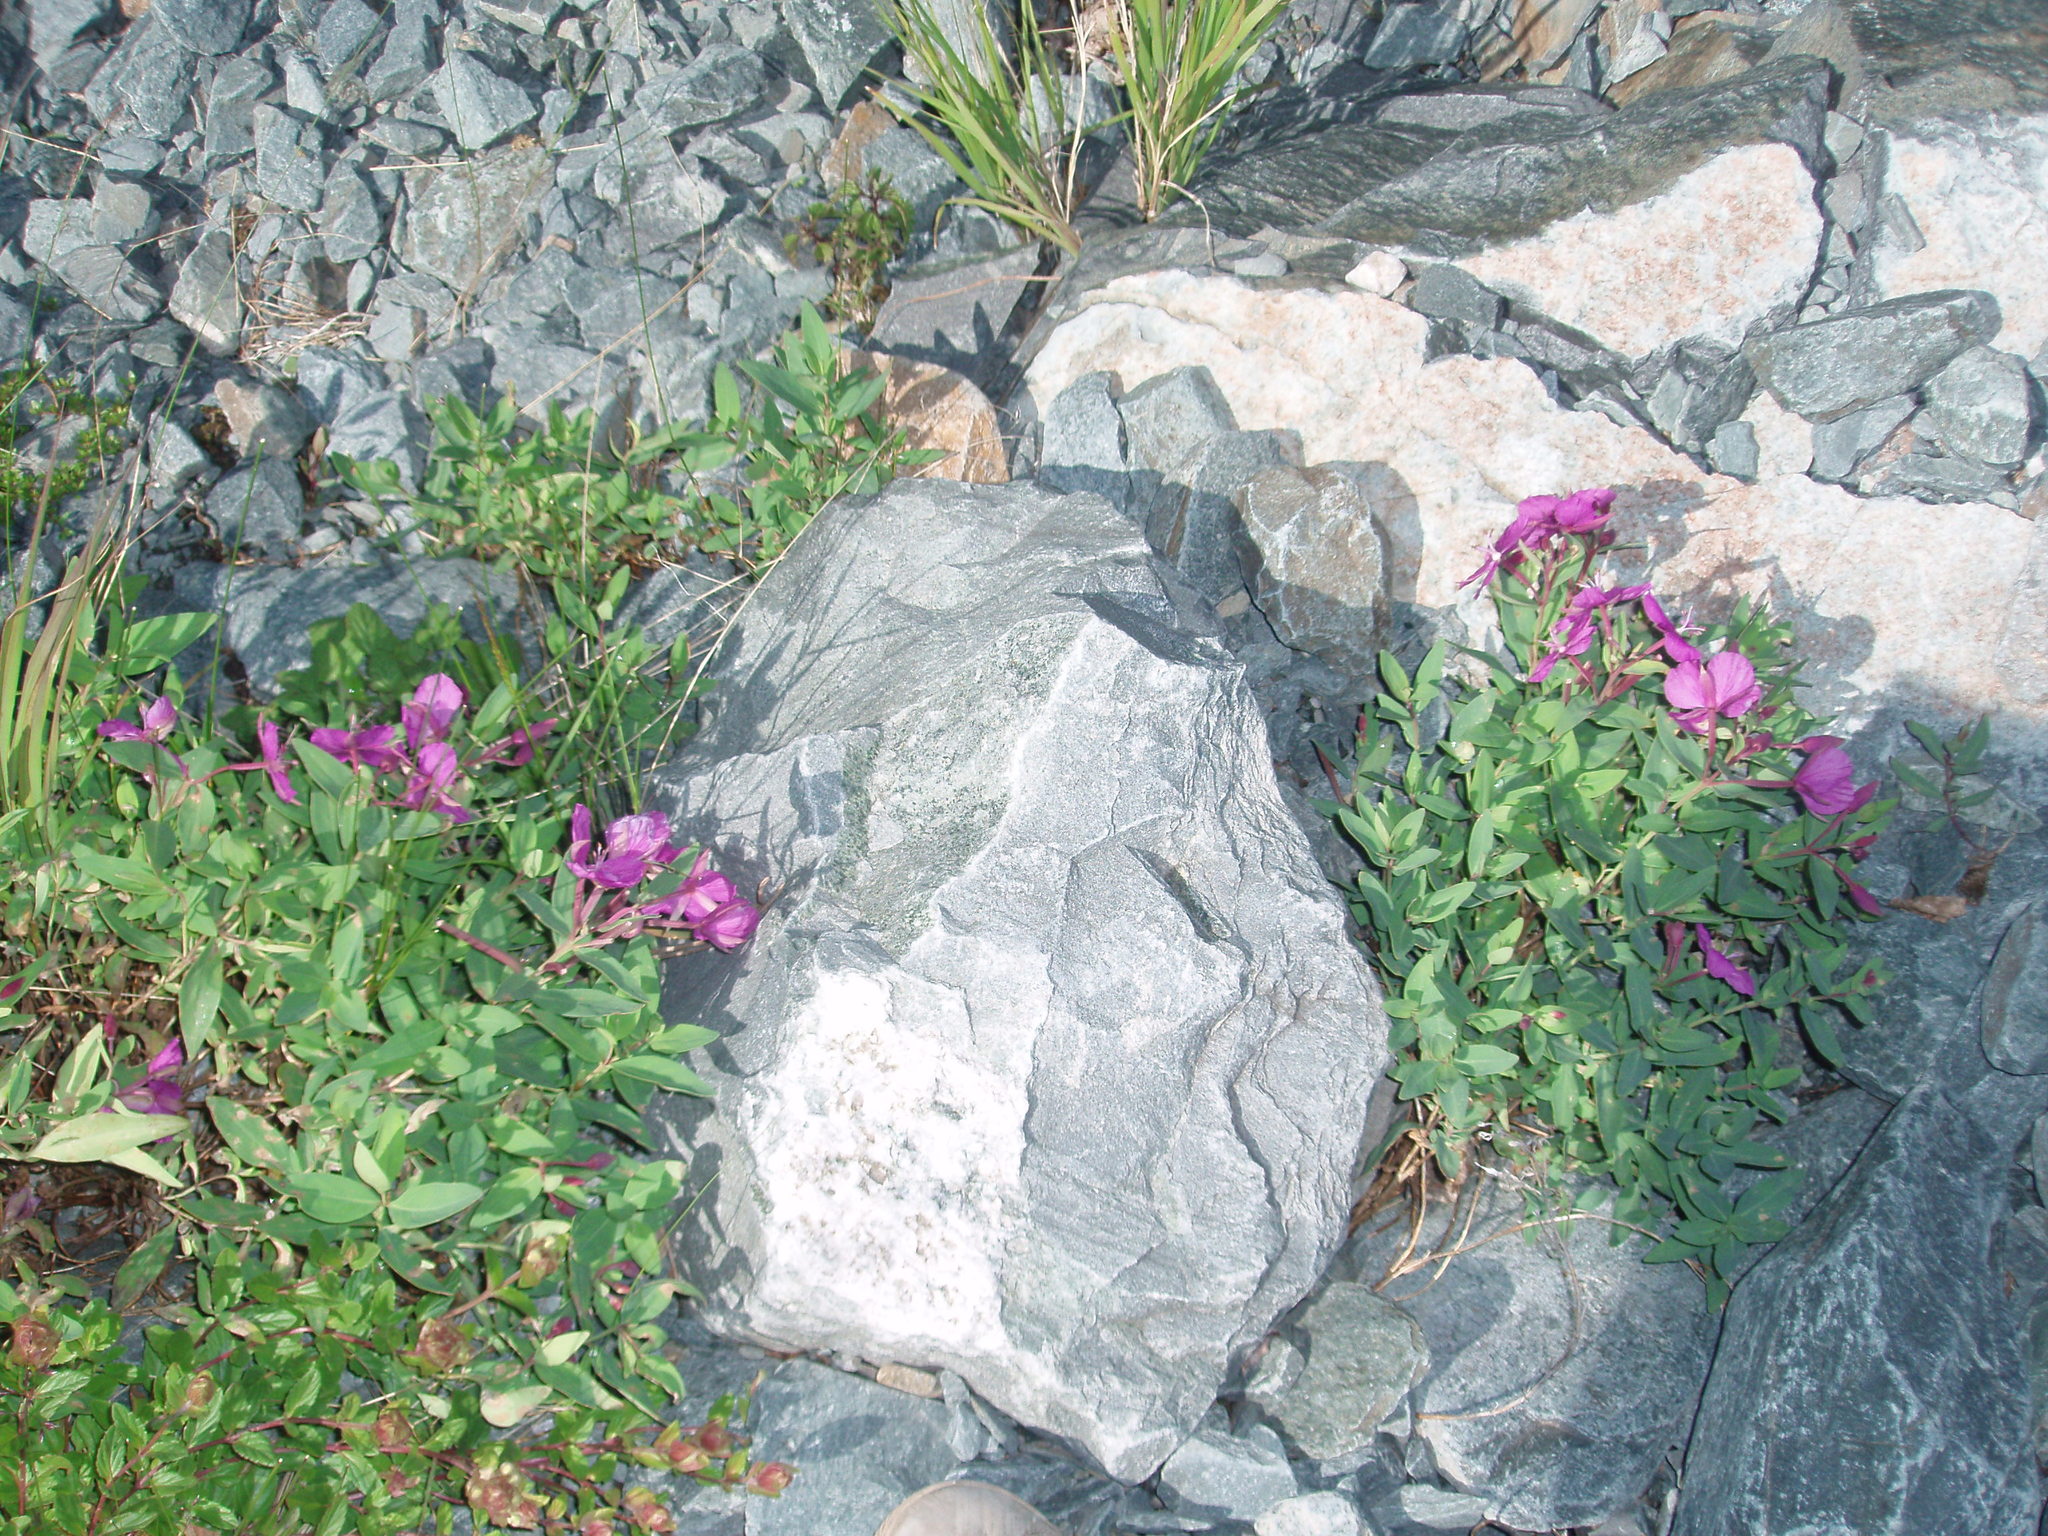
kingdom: Plantae
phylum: Tracheophyta
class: Magnoliopsida
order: Myrtales
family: Onagraceae
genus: Chamaenerion
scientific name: Chamaenerion latifolium
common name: Dwarf fireweed
